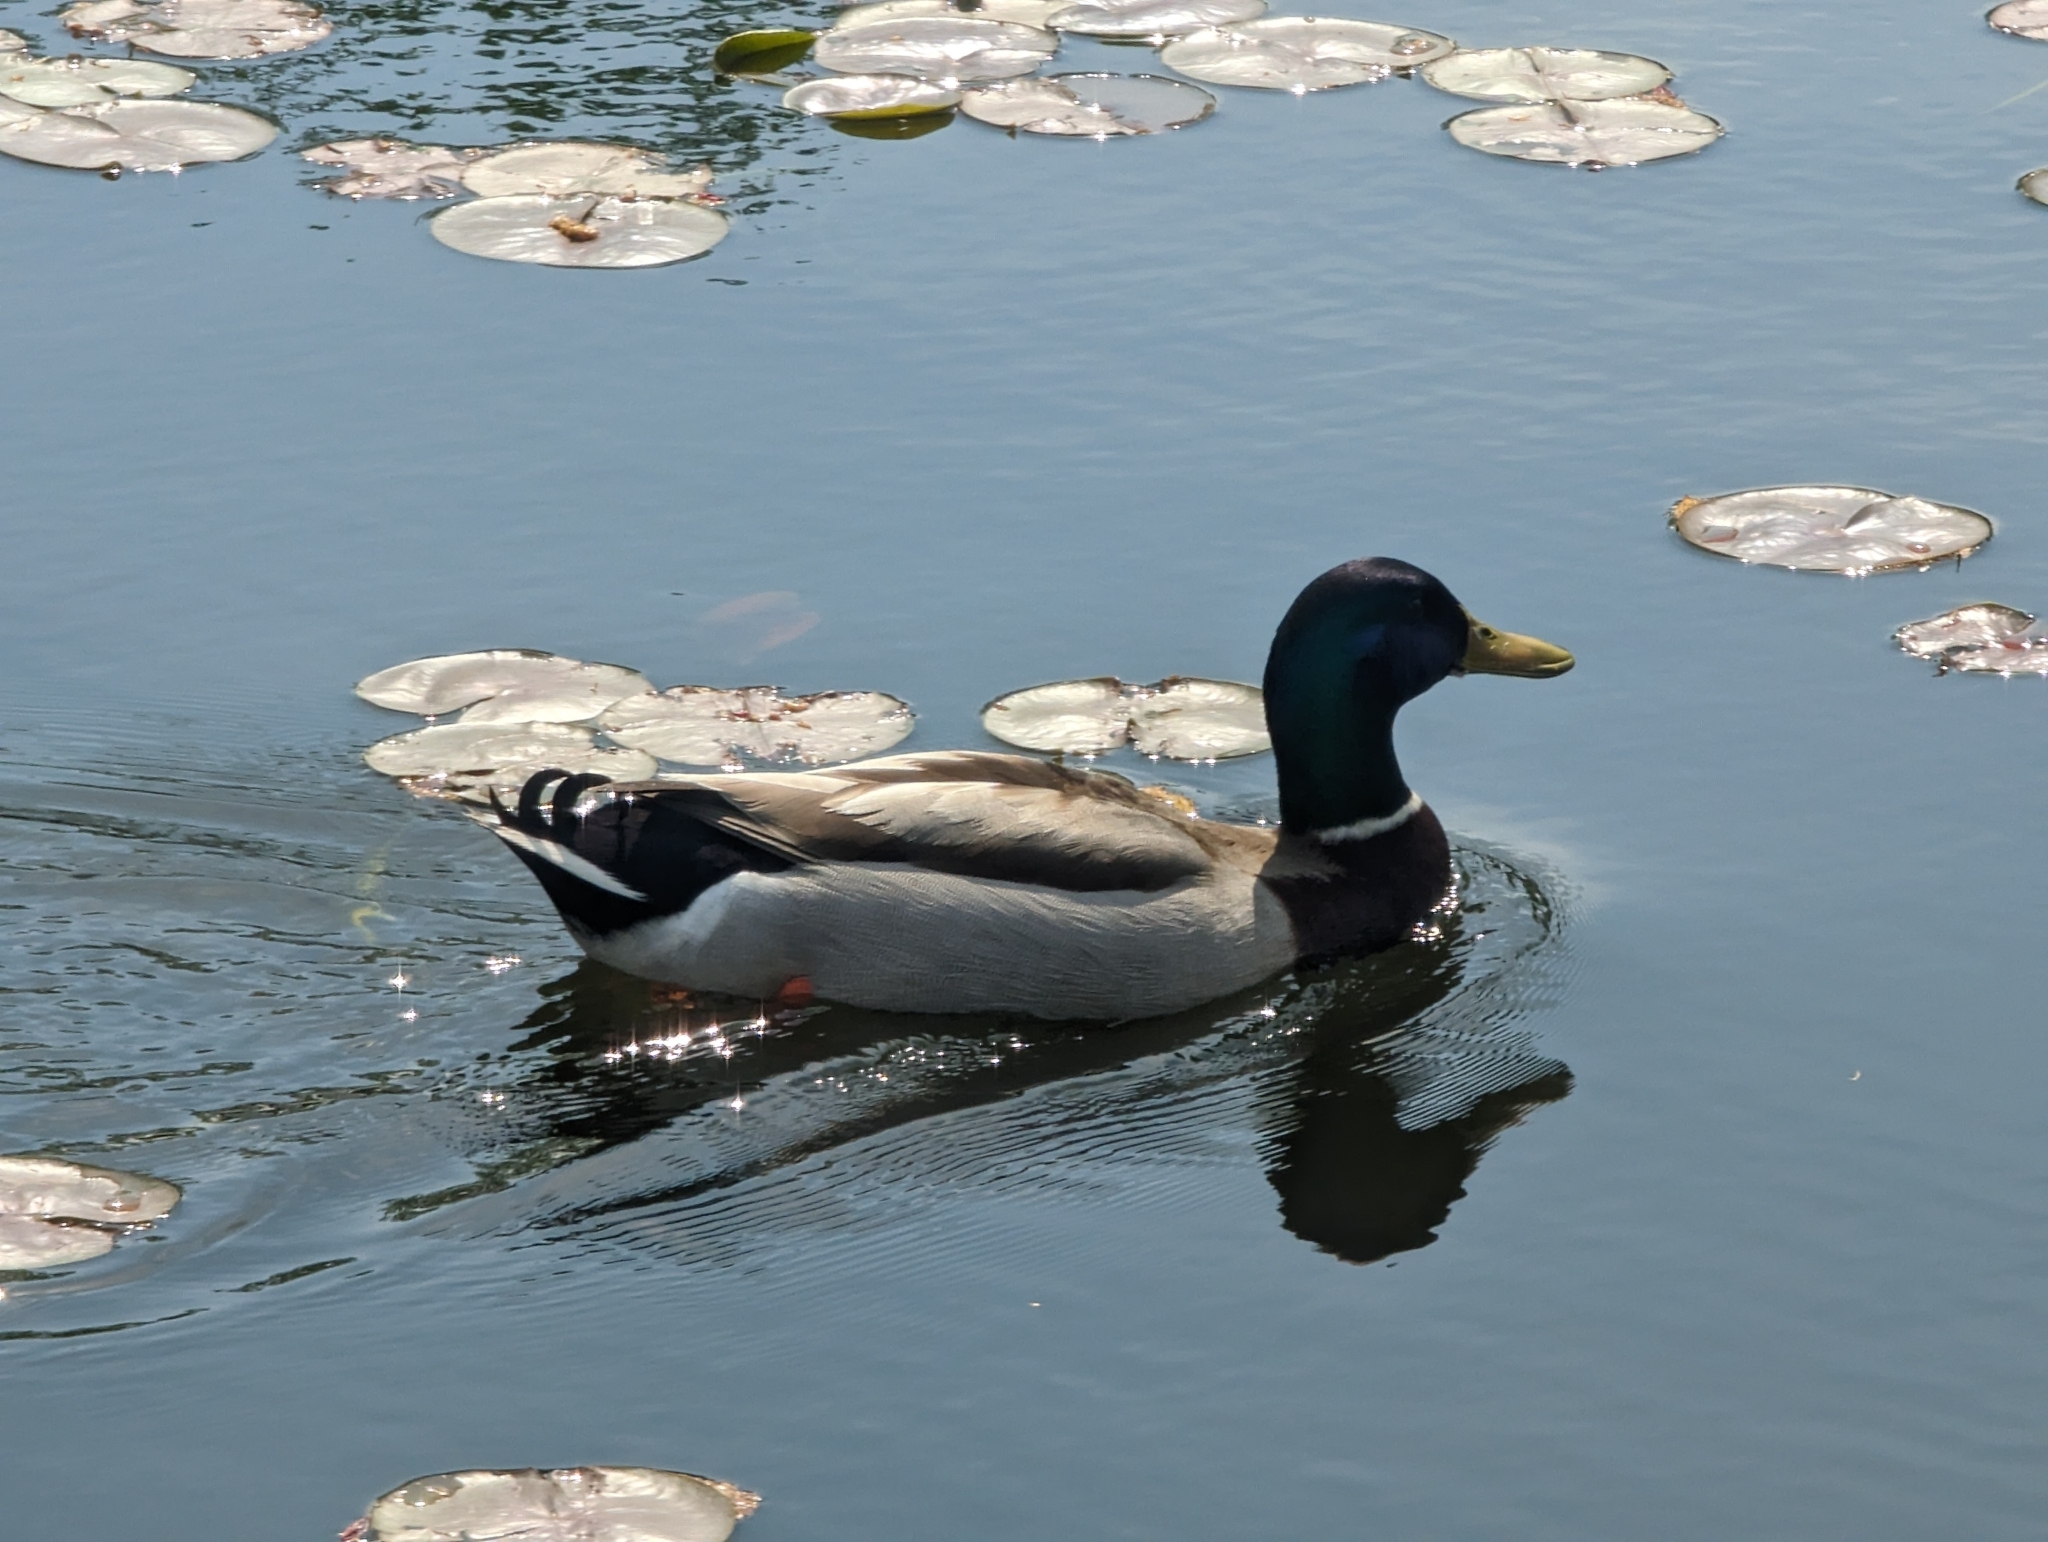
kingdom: Animalia
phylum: Chordata
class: Aves
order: Anseriformes
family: Anatidae
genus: Anas
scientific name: Anas platyrhynchos
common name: Mallard
